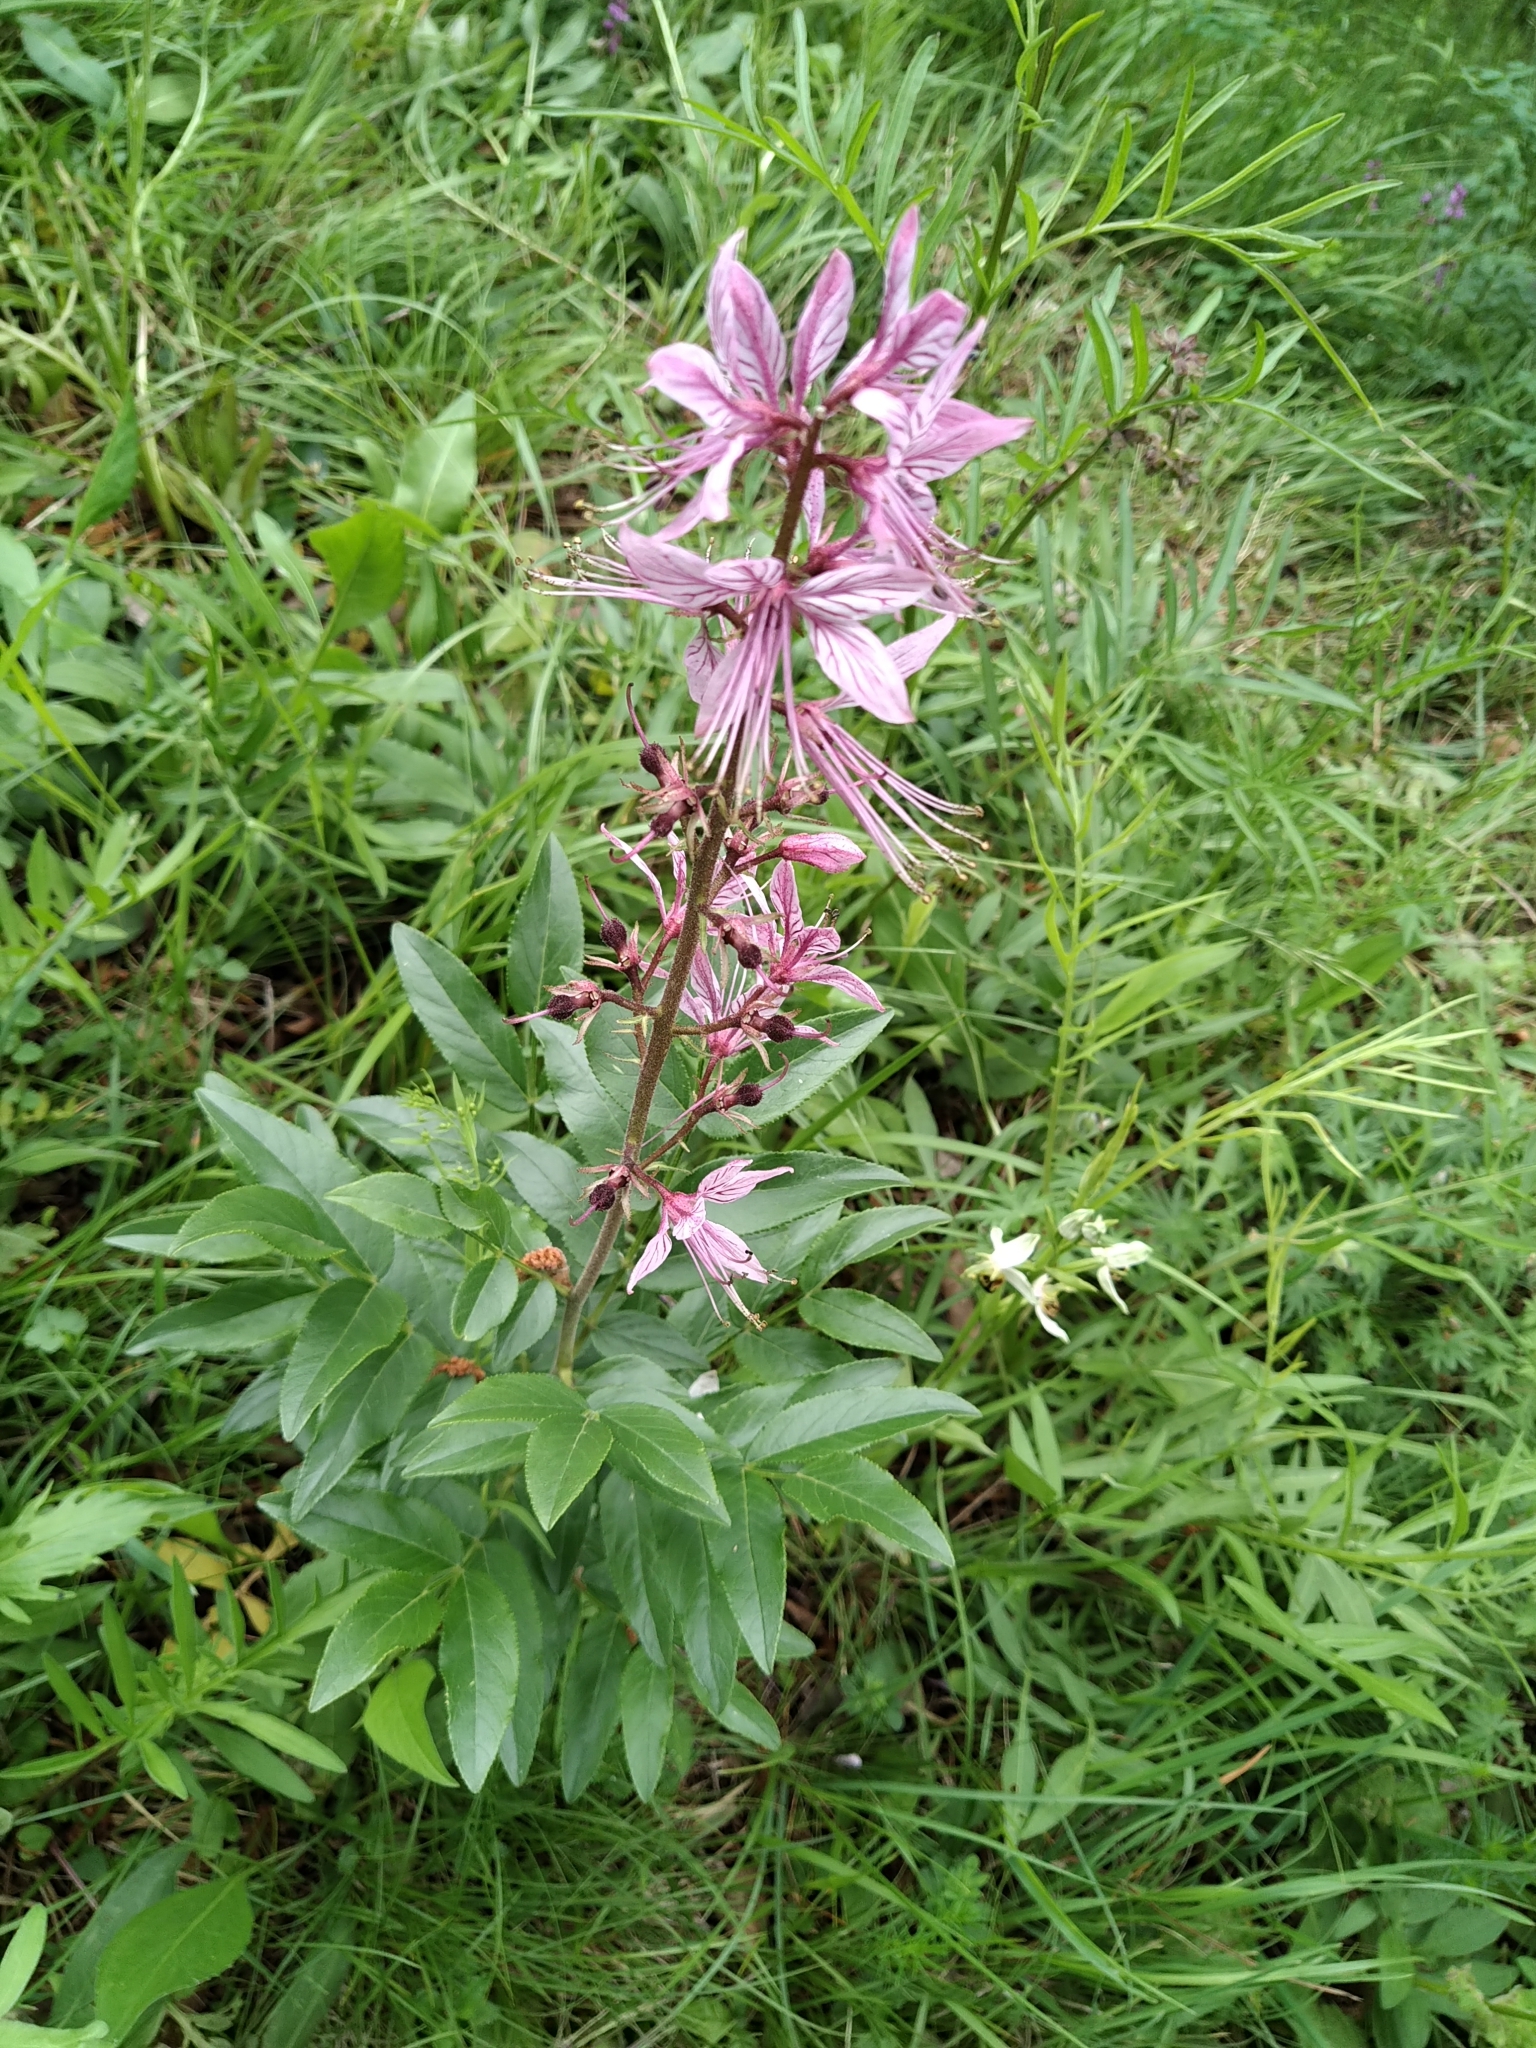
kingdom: Plantae
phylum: Tracheophyta
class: Magnoliopsida
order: Sapindales
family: Rutaceae
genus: Dictamnus
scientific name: Dictamnus albus
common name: Gasplant
